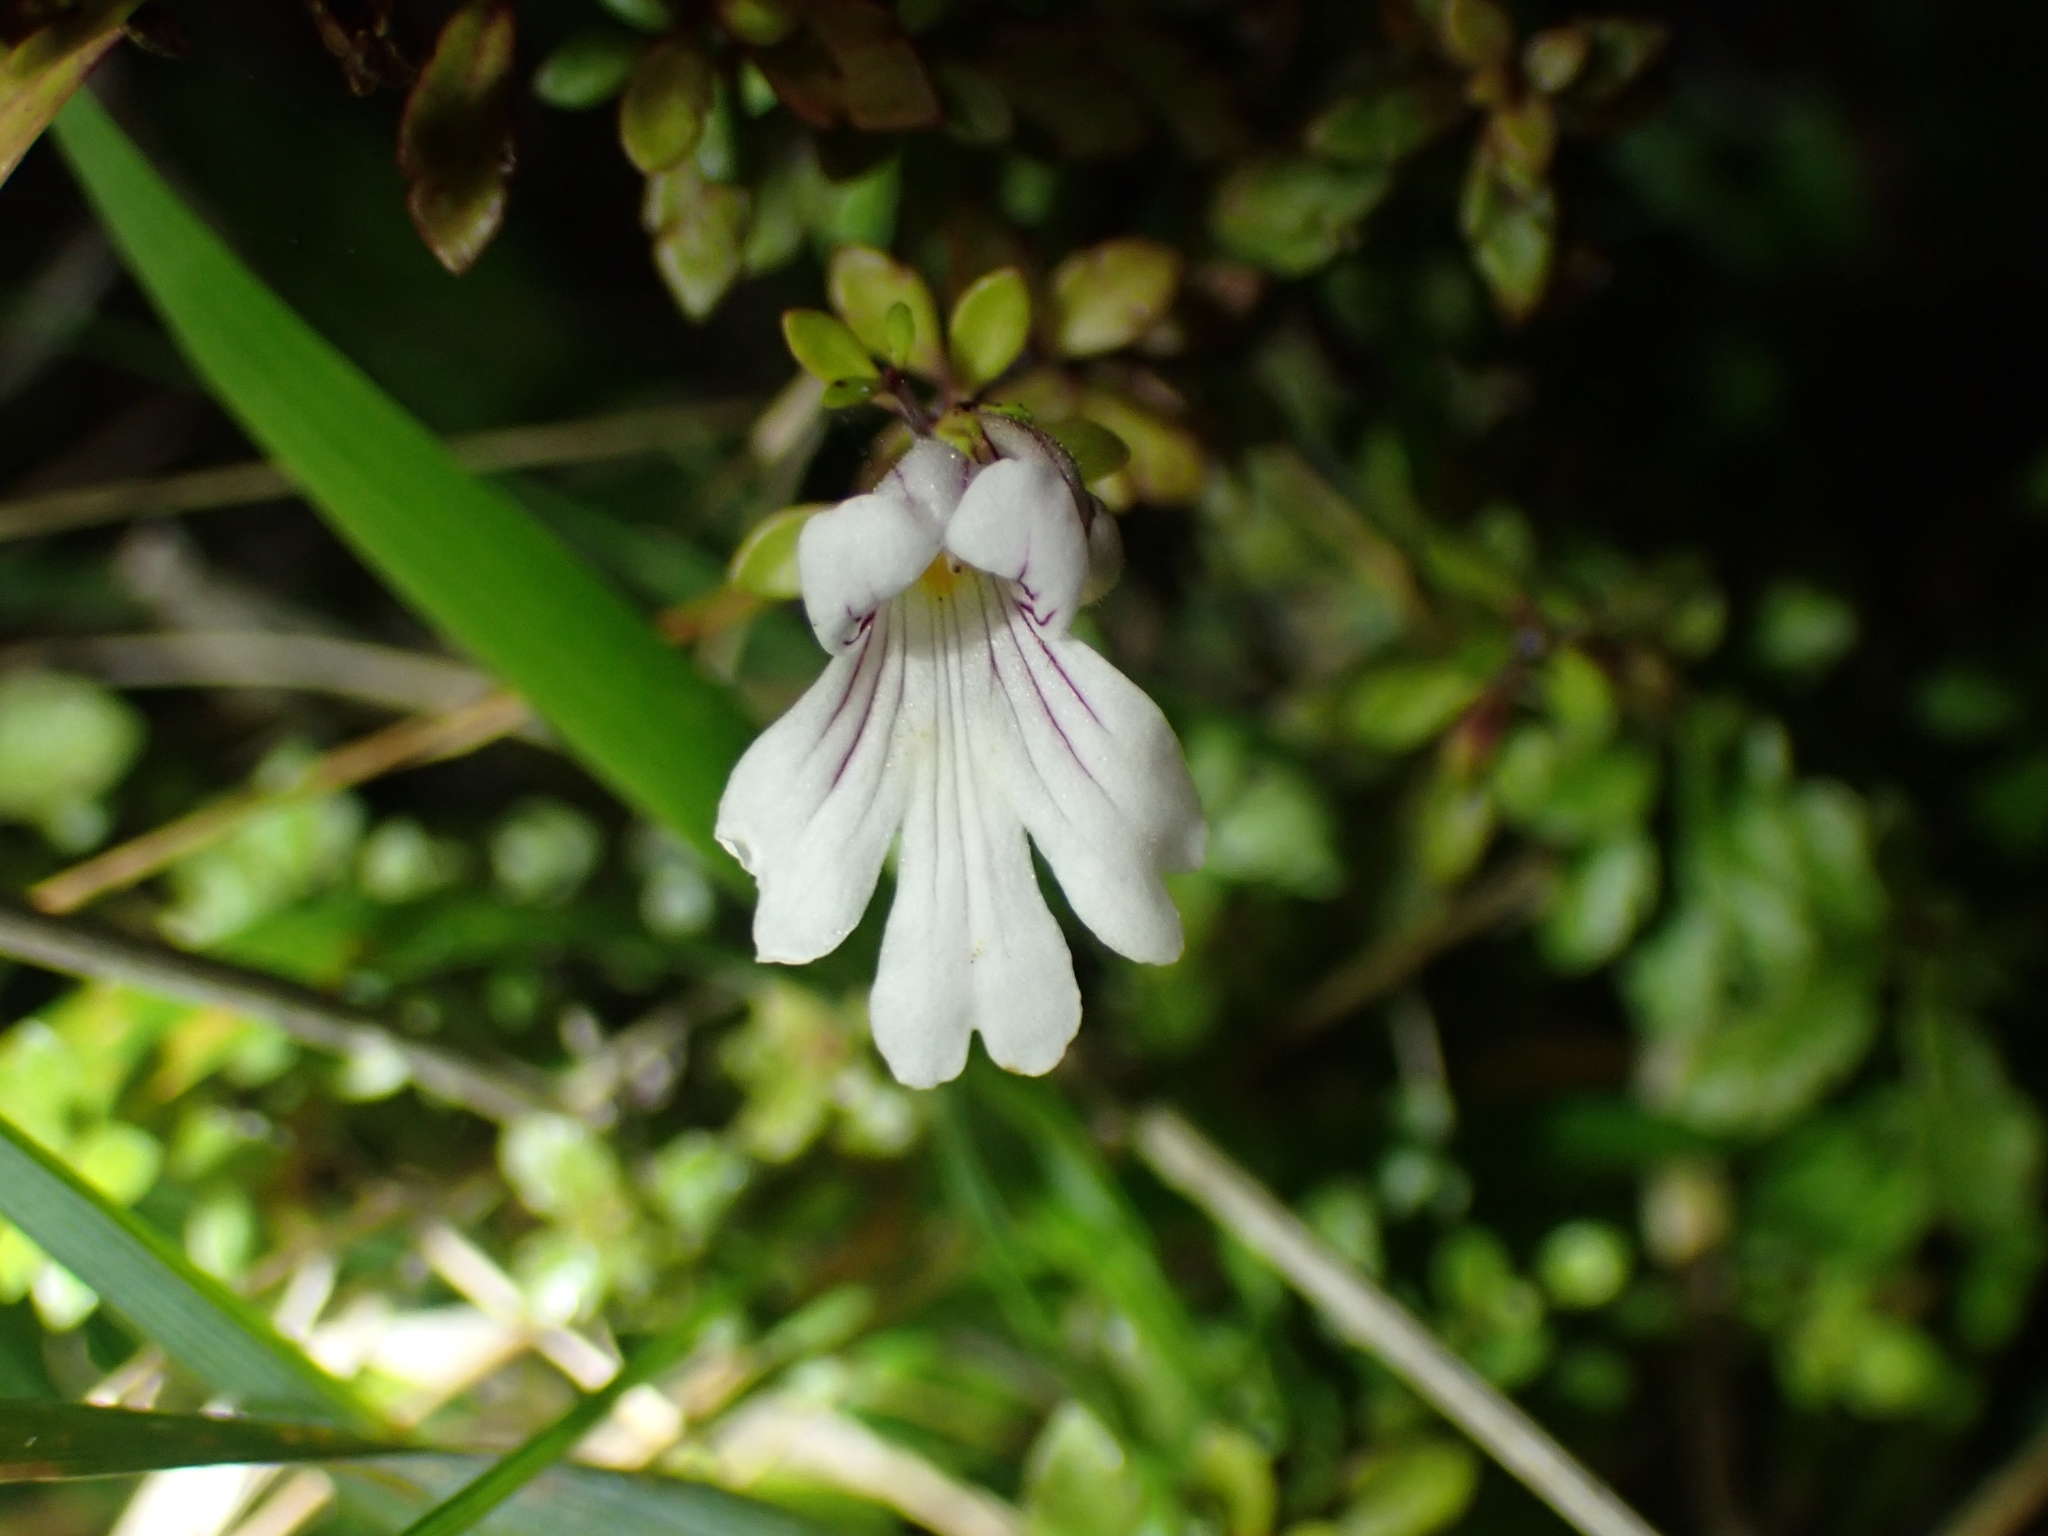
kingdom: Plantae
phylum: Tracheophyta
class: Magnoliopsida
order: Lamiales
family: Orobanchaceae
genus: Euphrasia
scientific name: Euphrasia cuneata
